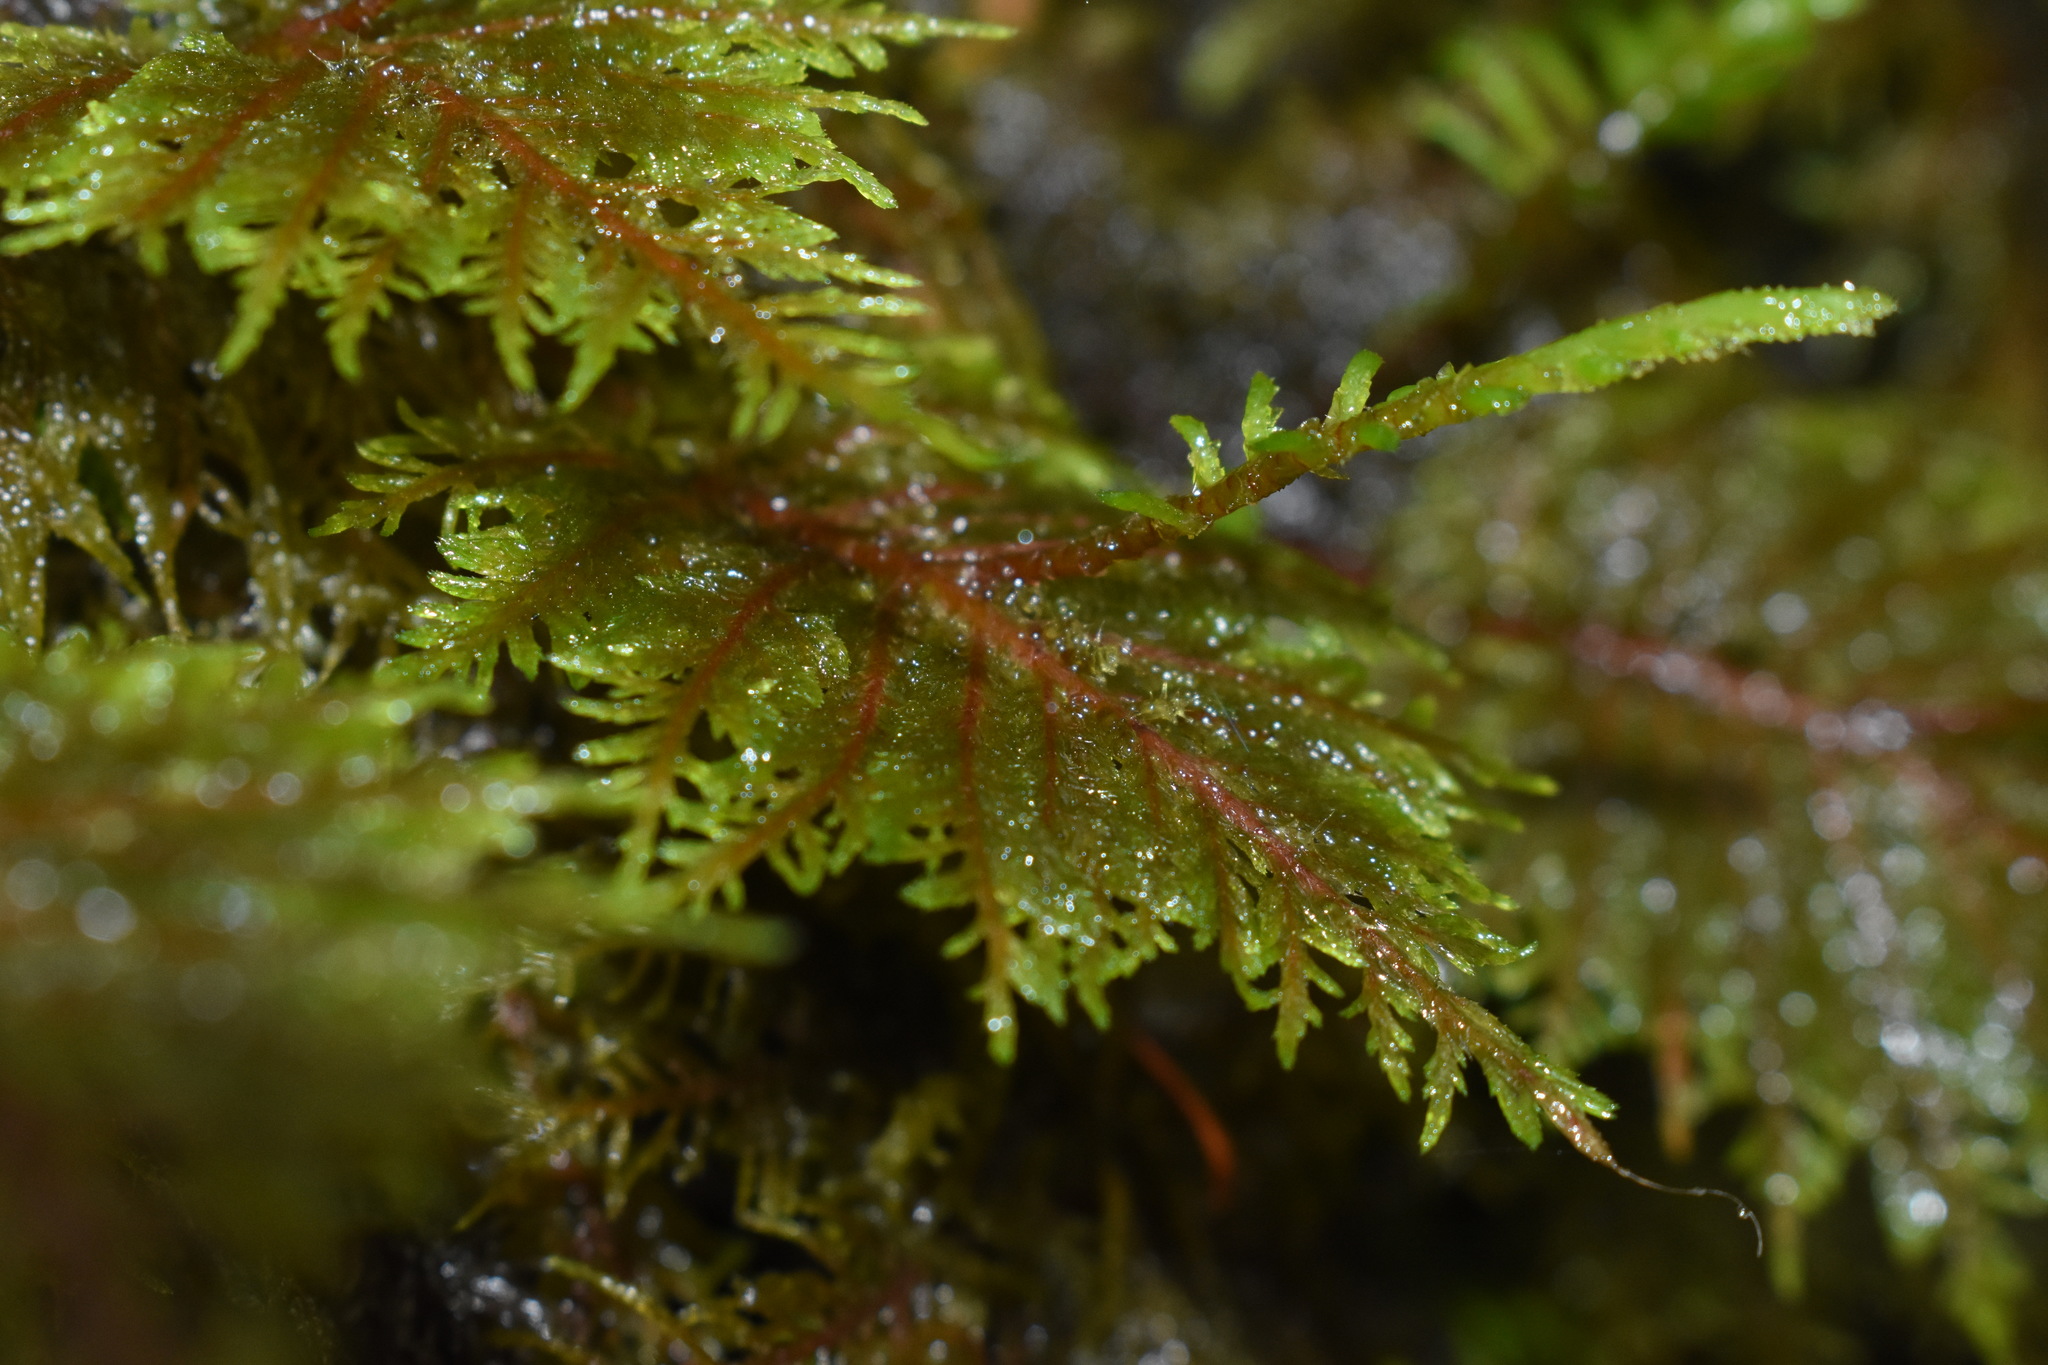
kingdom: Plantae
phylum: Bryophyta
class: Bryopsida
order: Hypnales
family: Hylocomiaceae
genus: Hylocomium
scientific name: Hylocomium splendens
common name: Stairstep moss
